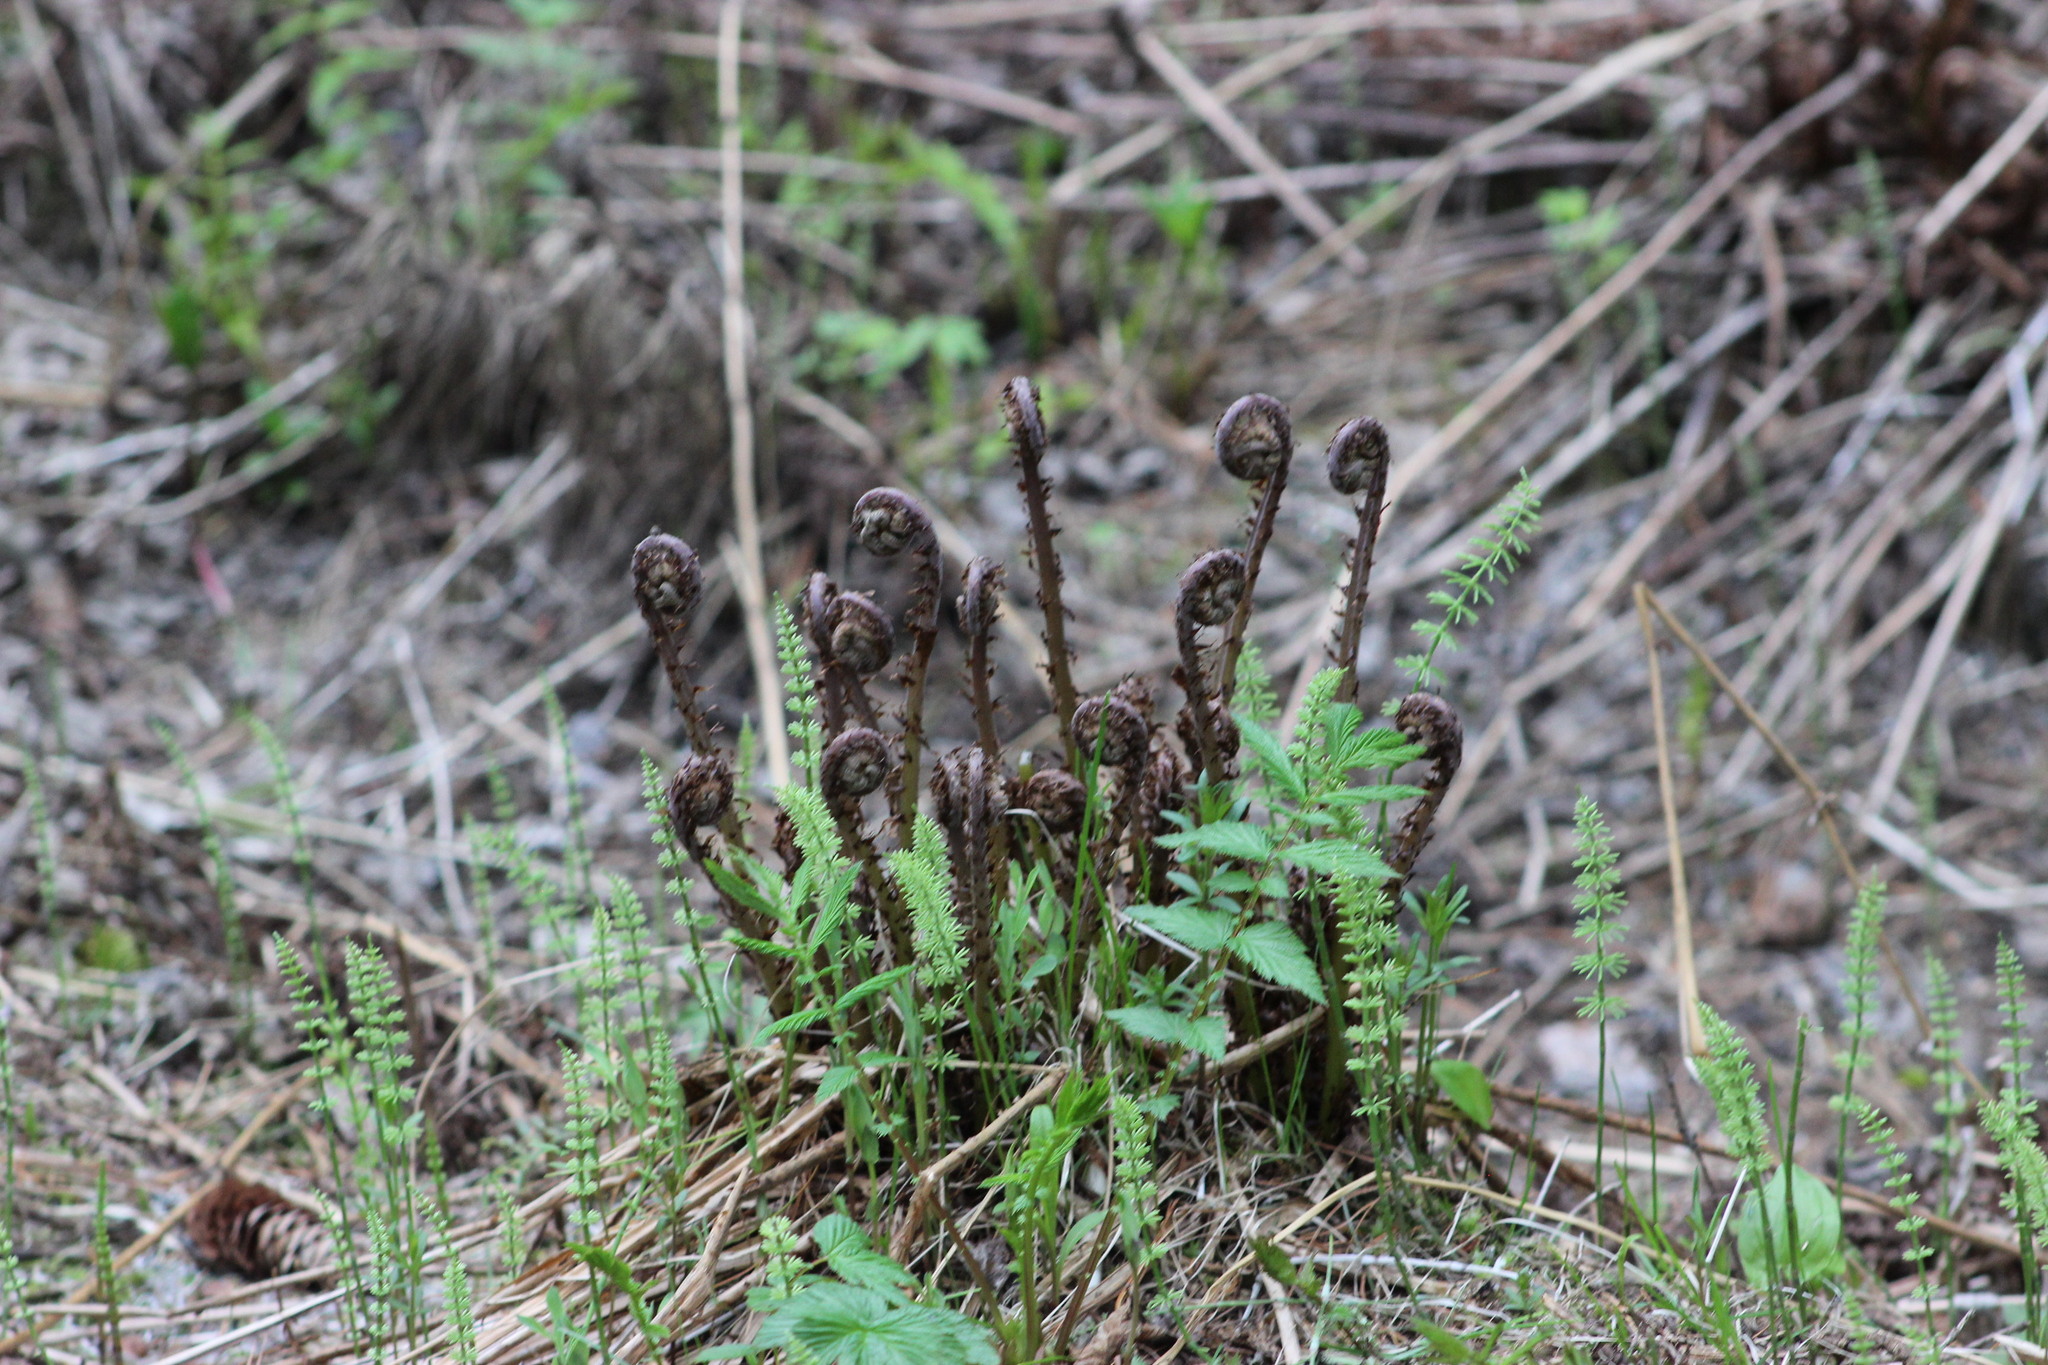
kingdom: Plantae
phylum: Tracheophyta
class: Polypodiopsida
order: Polypodiales
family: Athyriaceae
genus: Athyrium
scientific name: Athyrium filix-femina
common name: Lady fern
